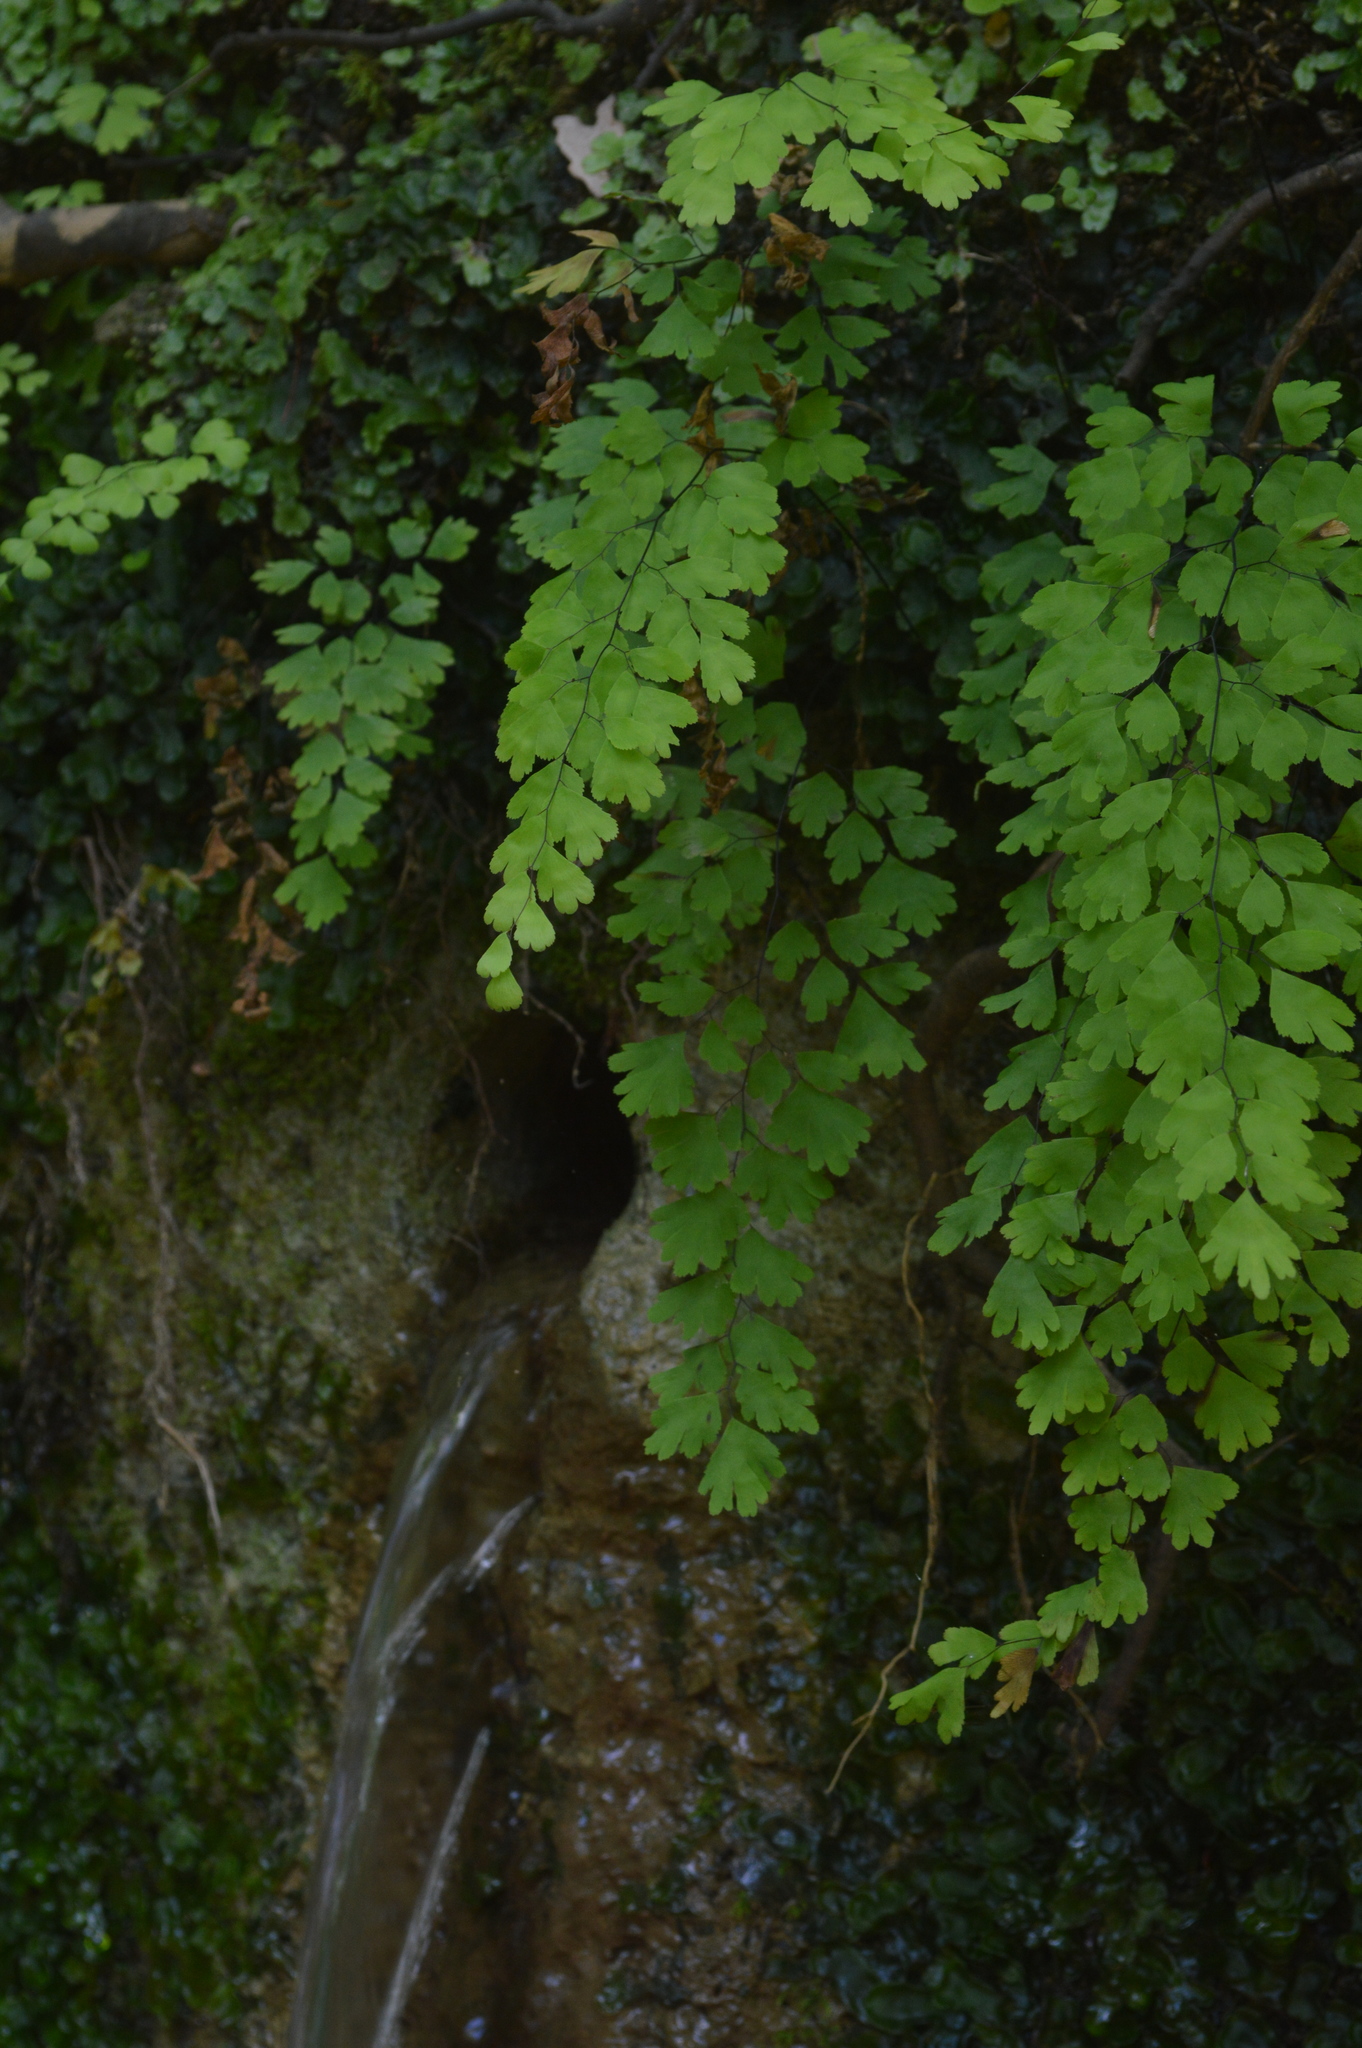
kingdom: Plantae
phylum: Tracheophyta
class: Polypodiopsida
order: Polypodiales
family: Pteridaceae
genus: Adiantum
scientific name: Adiantum capillus-veneris
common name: Maidenhair fern
